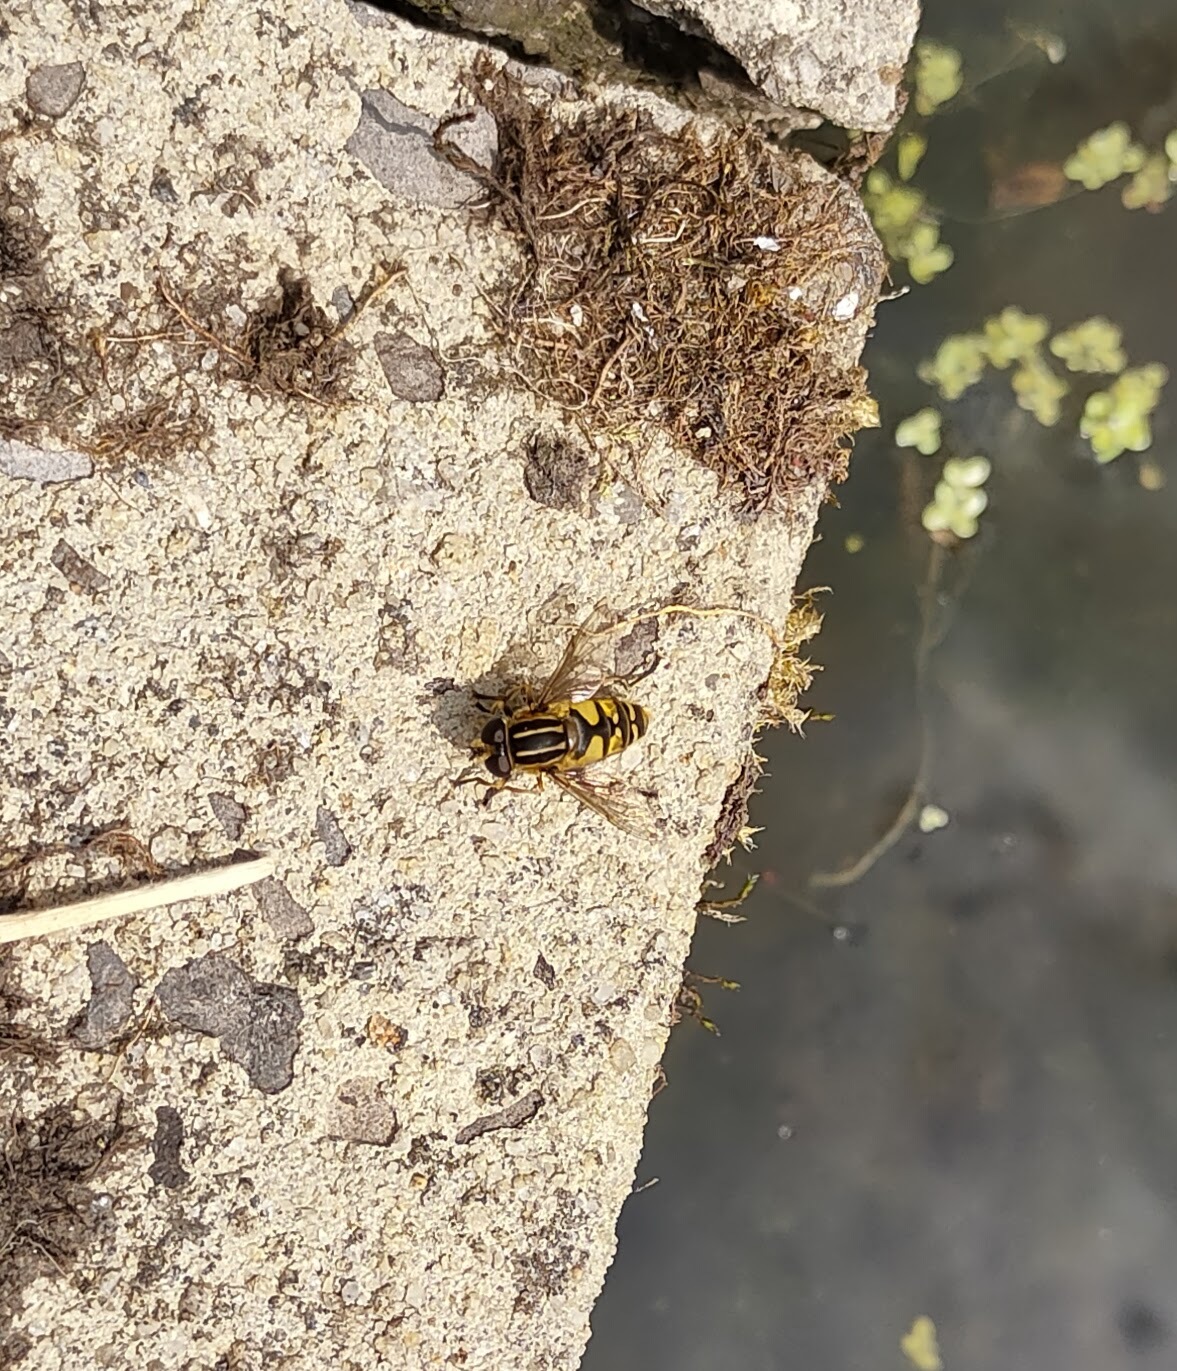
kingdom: Animalia
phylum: Arthropoda
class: Insecta
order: Diptera
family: Syrphidae
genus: Helophilus
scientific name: Helophilus pendulus
